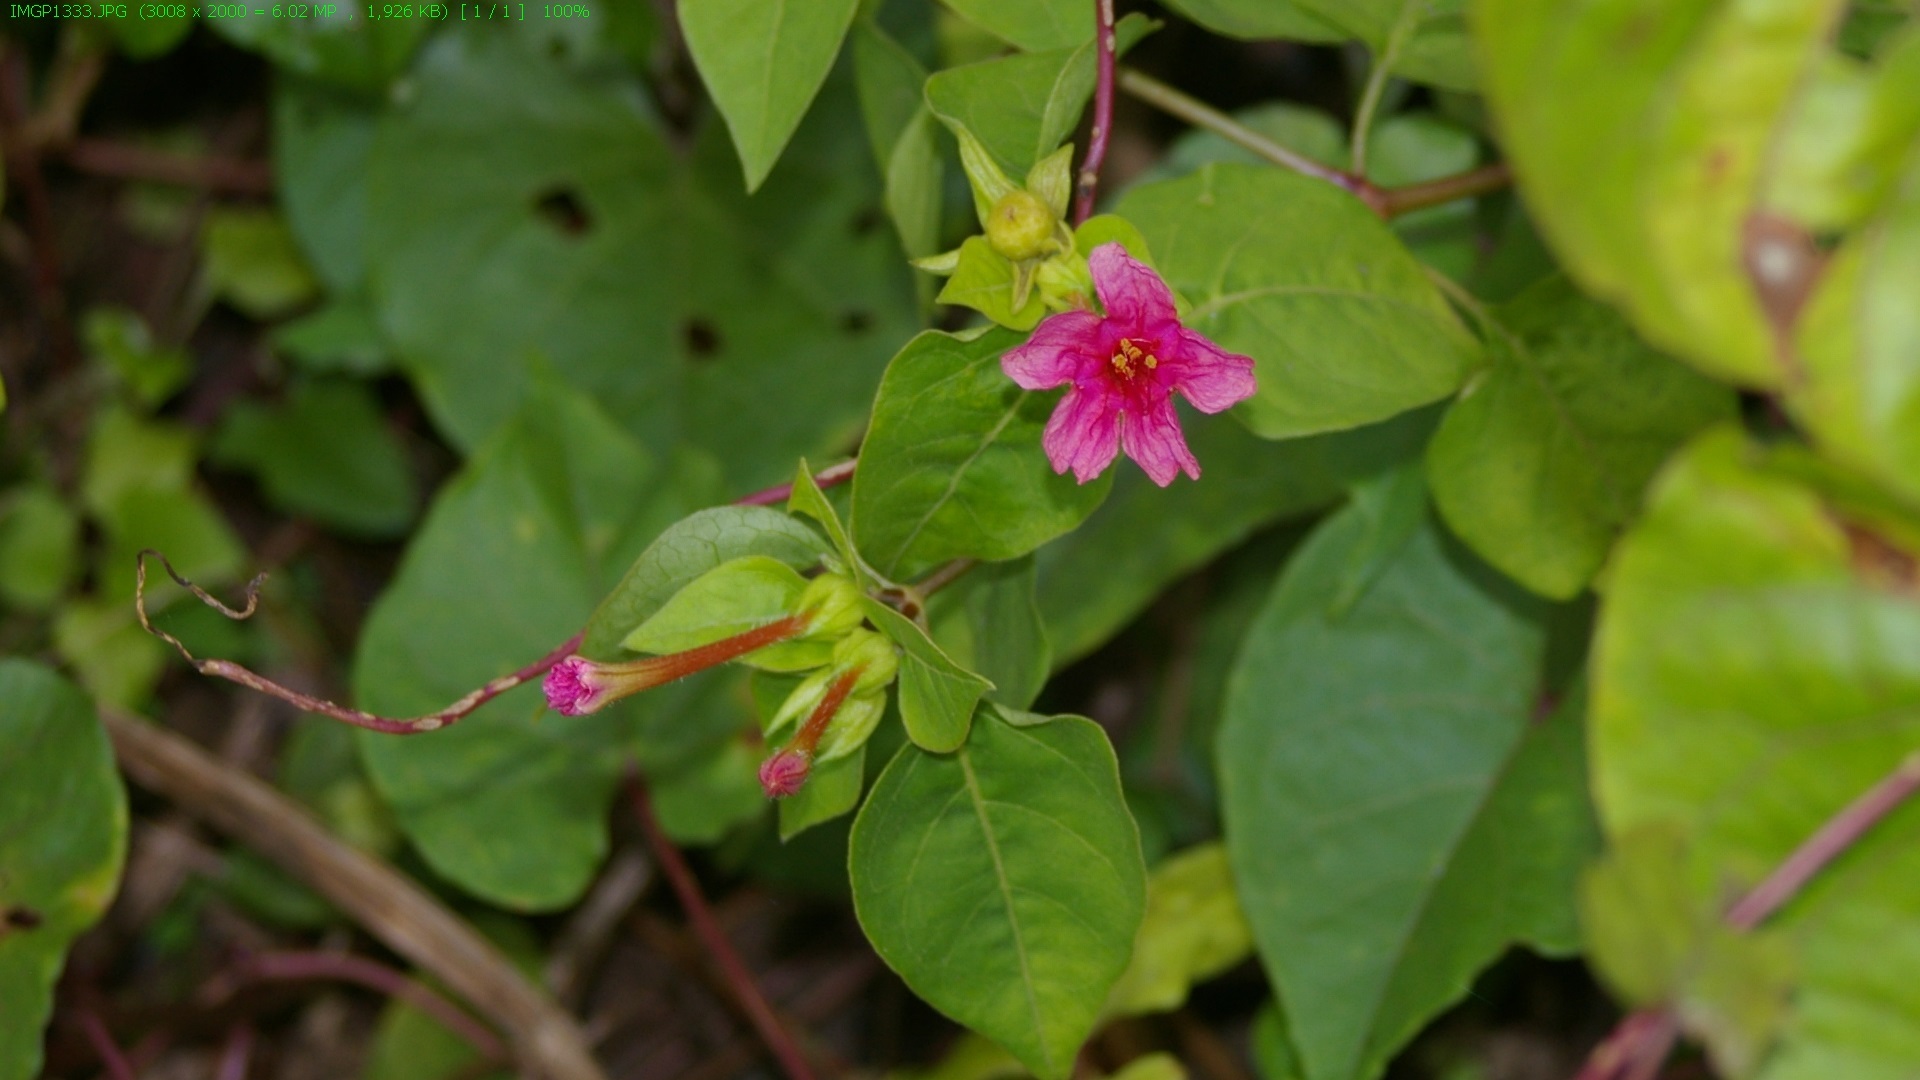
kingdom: Plantae
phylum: Tracheophyta
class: Magnoliopsida
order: Caryophyllales
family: Nyctaginaceae
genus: Mirabilis
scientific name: Mirabilis jalapa
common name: Marvel-of-peru
